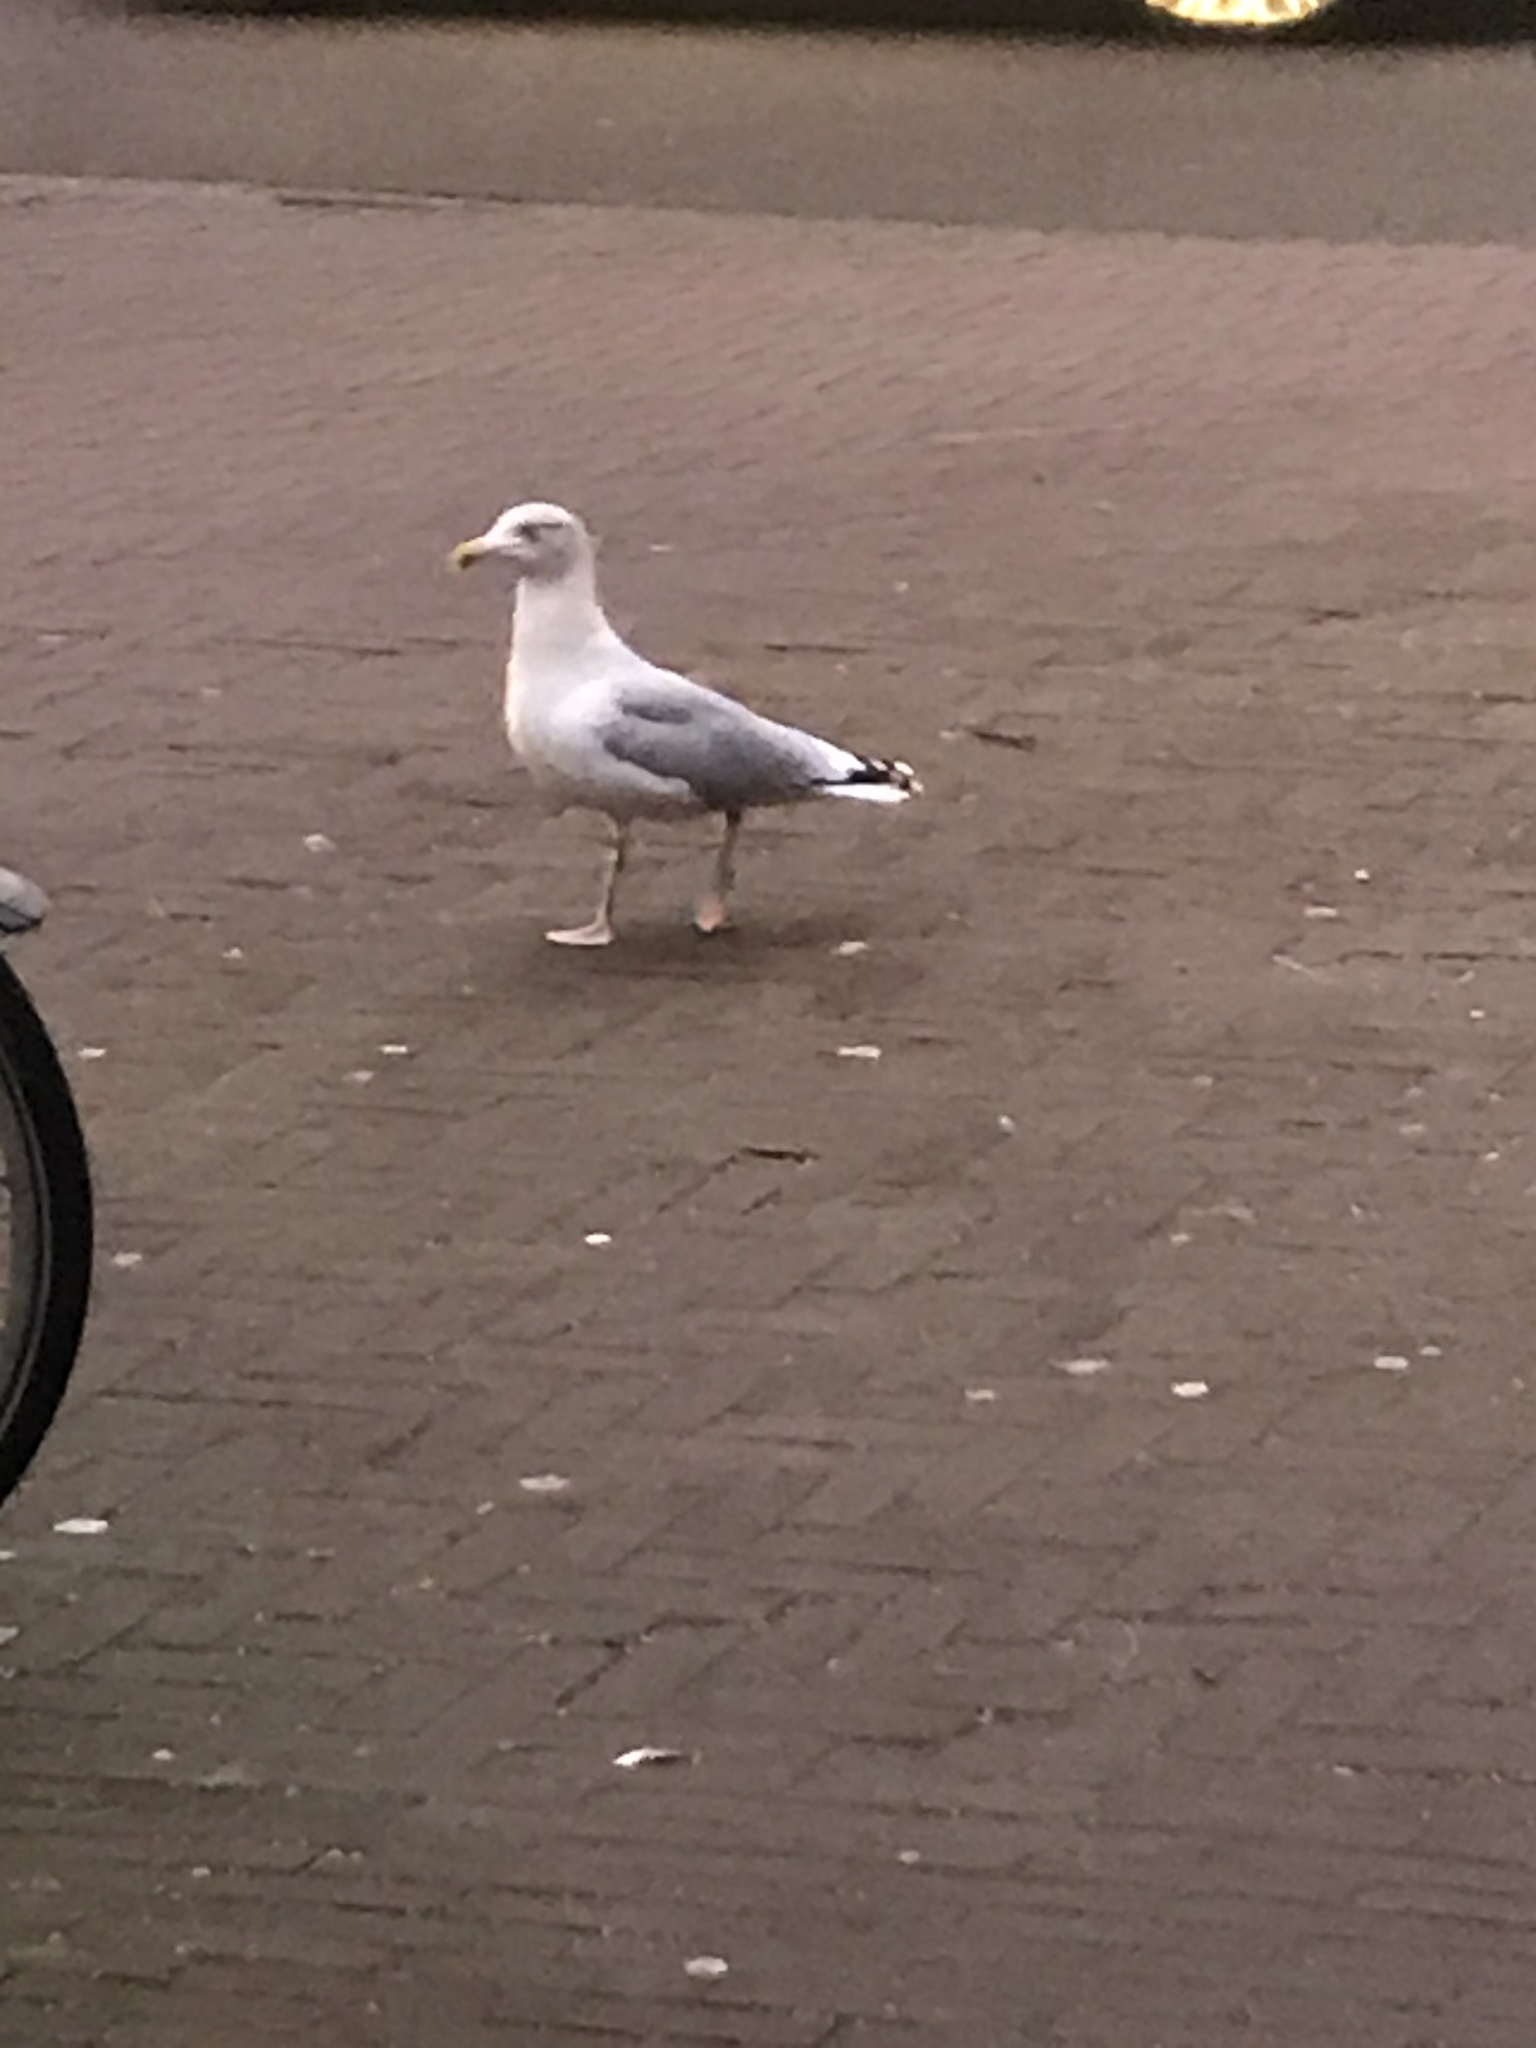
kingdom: Animalia
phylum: Chordata
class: Aves
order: Charadriiformes
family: Laridae
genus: Larus
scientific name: Larus argentatus
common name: Herring gull
